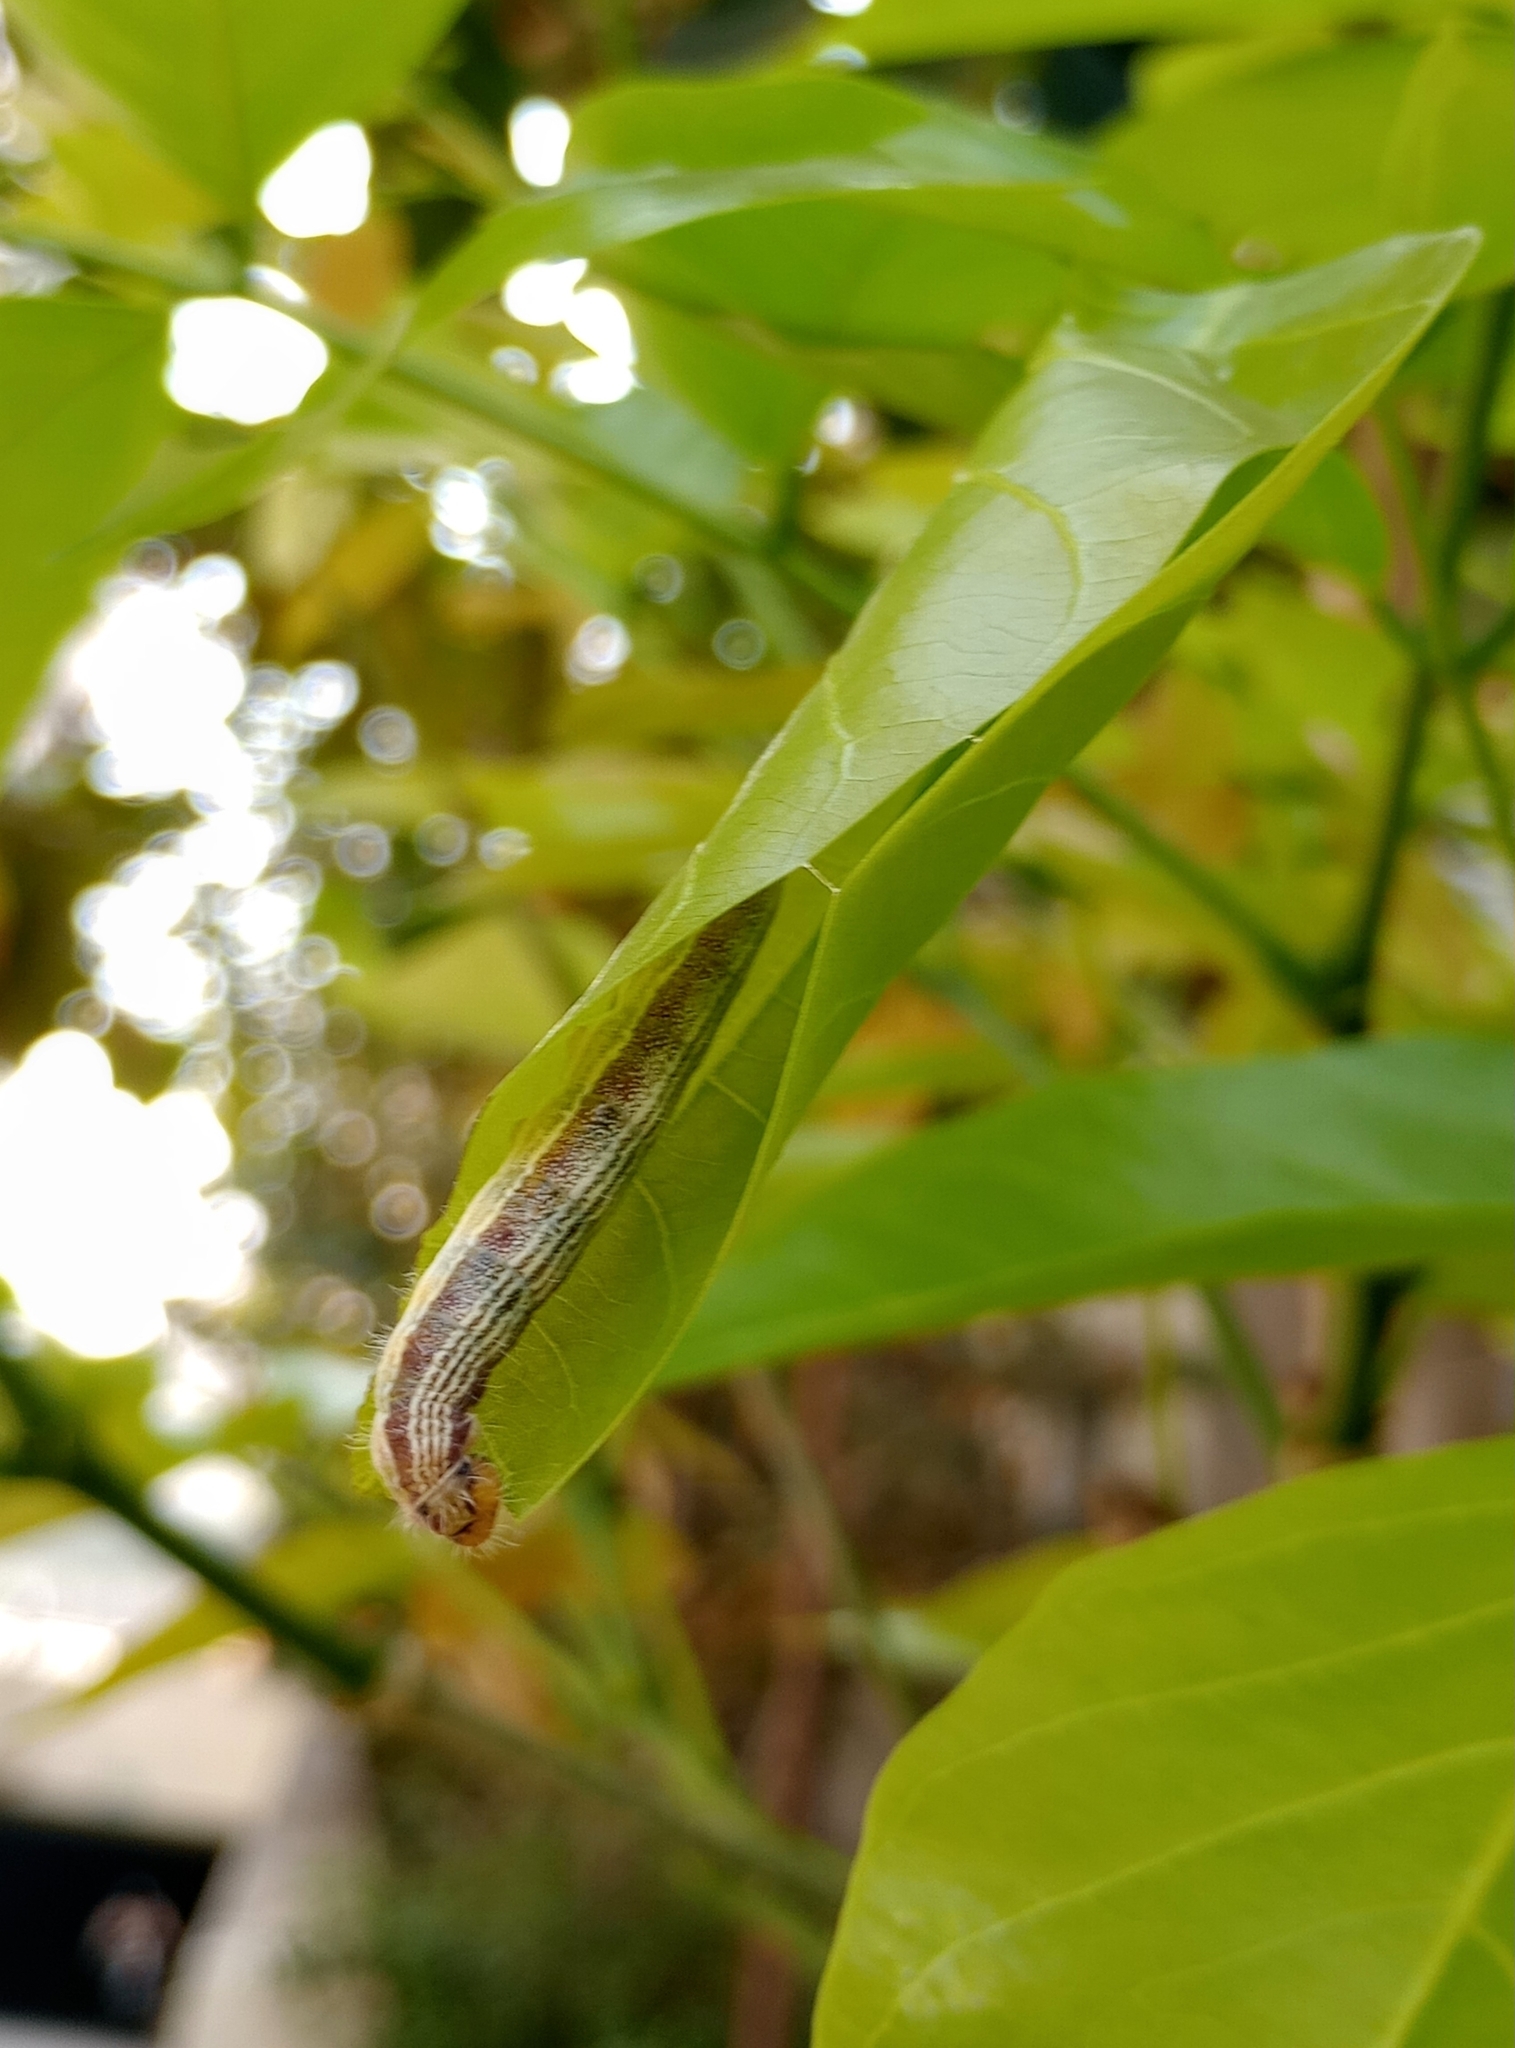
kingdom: Animalia
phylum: Arthropoda
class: Insecta
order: Lepidoptera
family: Hesperiidae
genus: Hasora
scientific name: Hasora chromus
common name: Common banded awl
